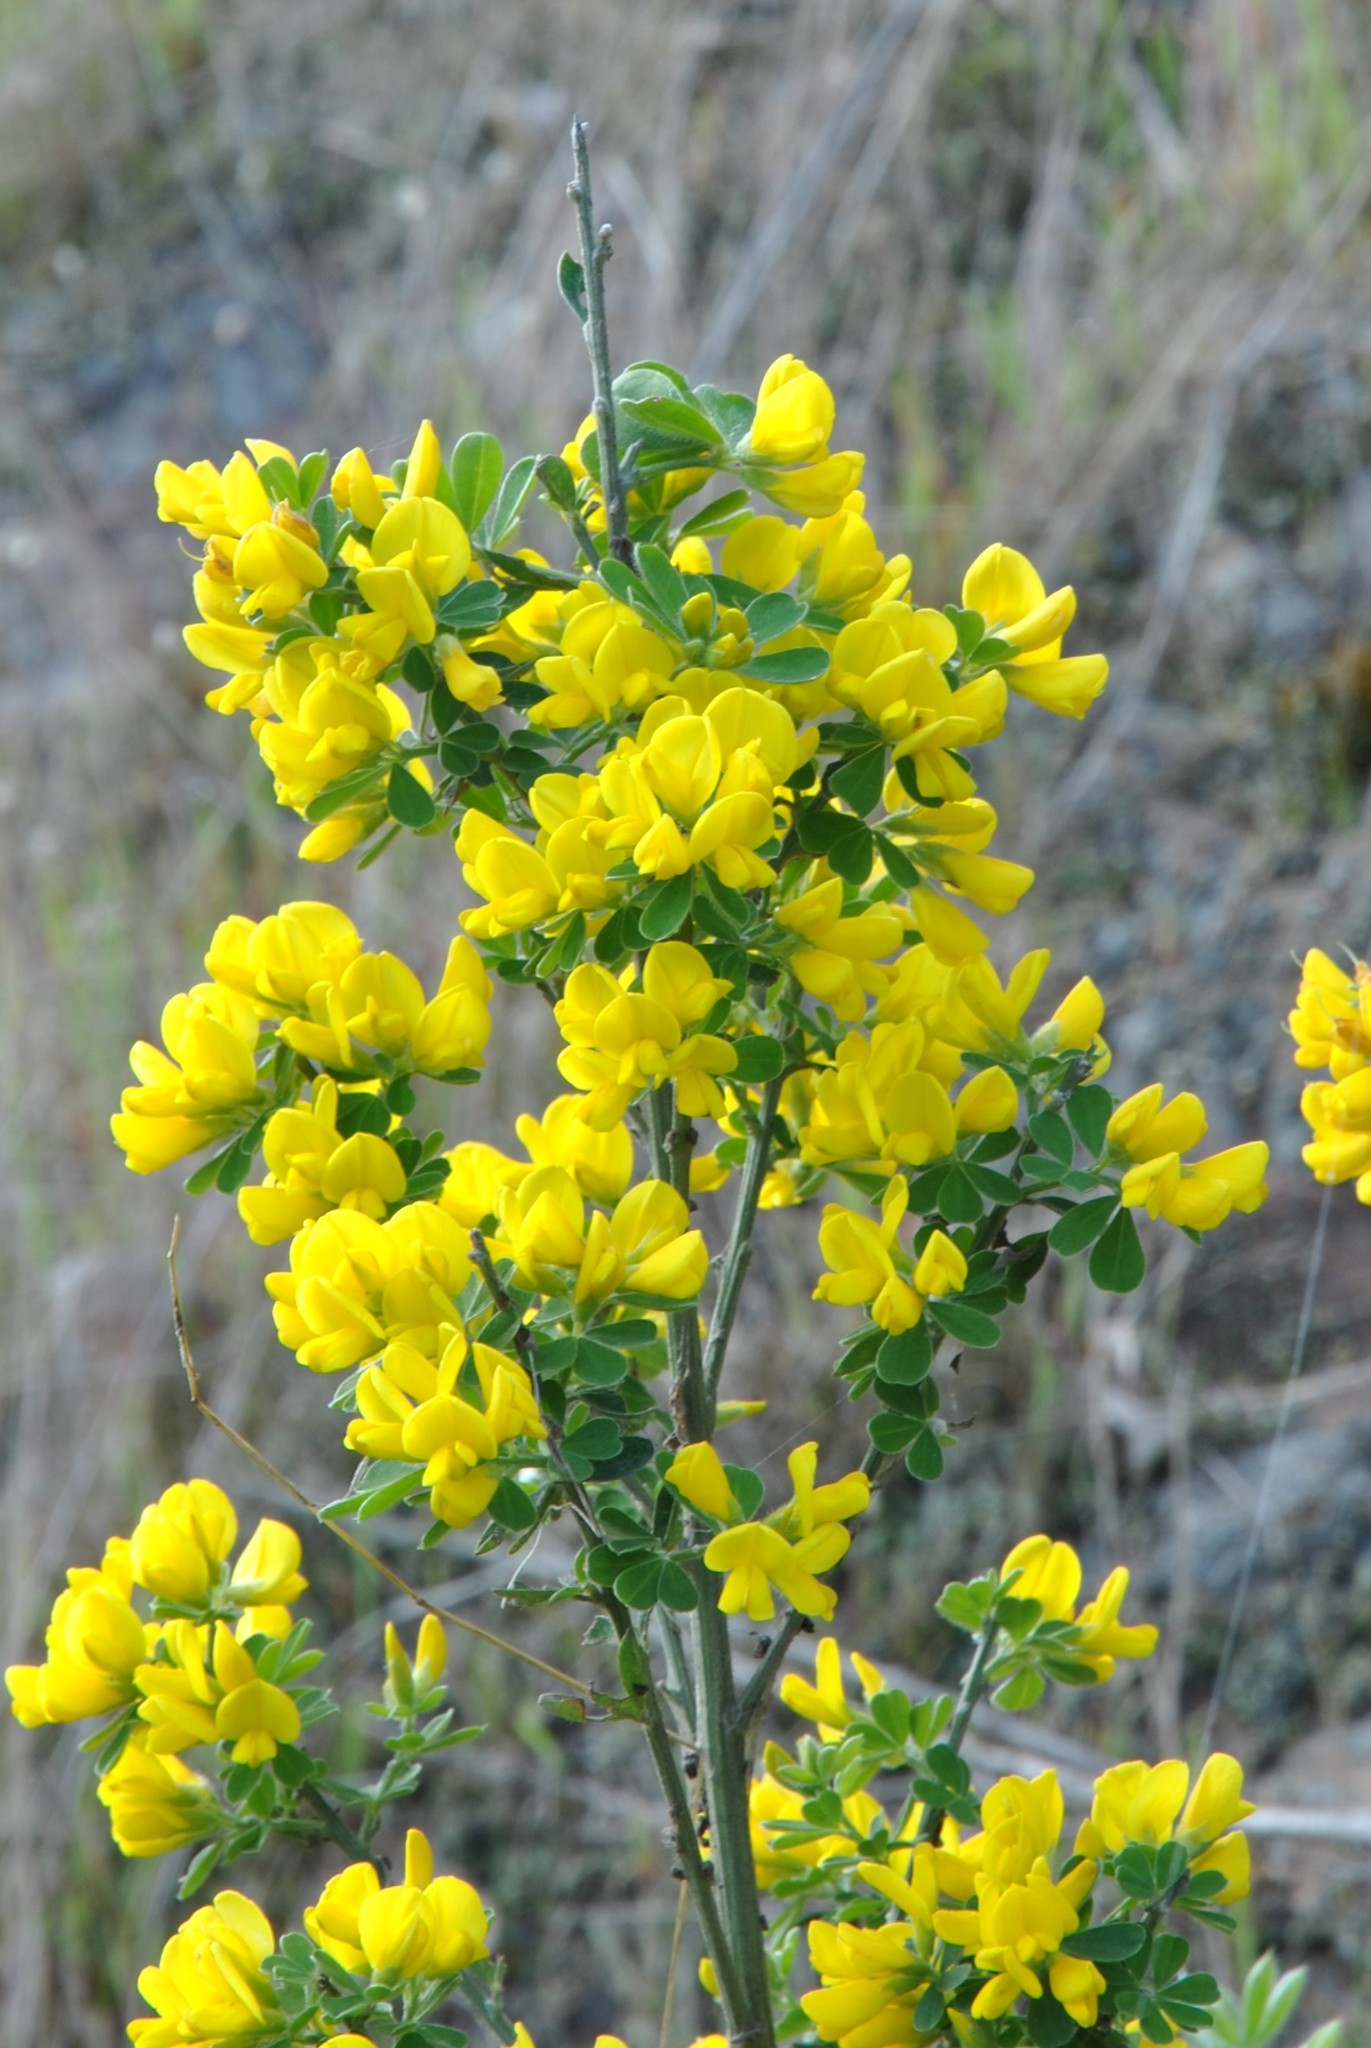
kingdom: Plantae
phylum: Tracheophyta
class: Magnoliopsida
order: Fabales
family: Fabaceae
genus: Genista
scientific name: Genista monspessulana
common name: Montpellier broom
